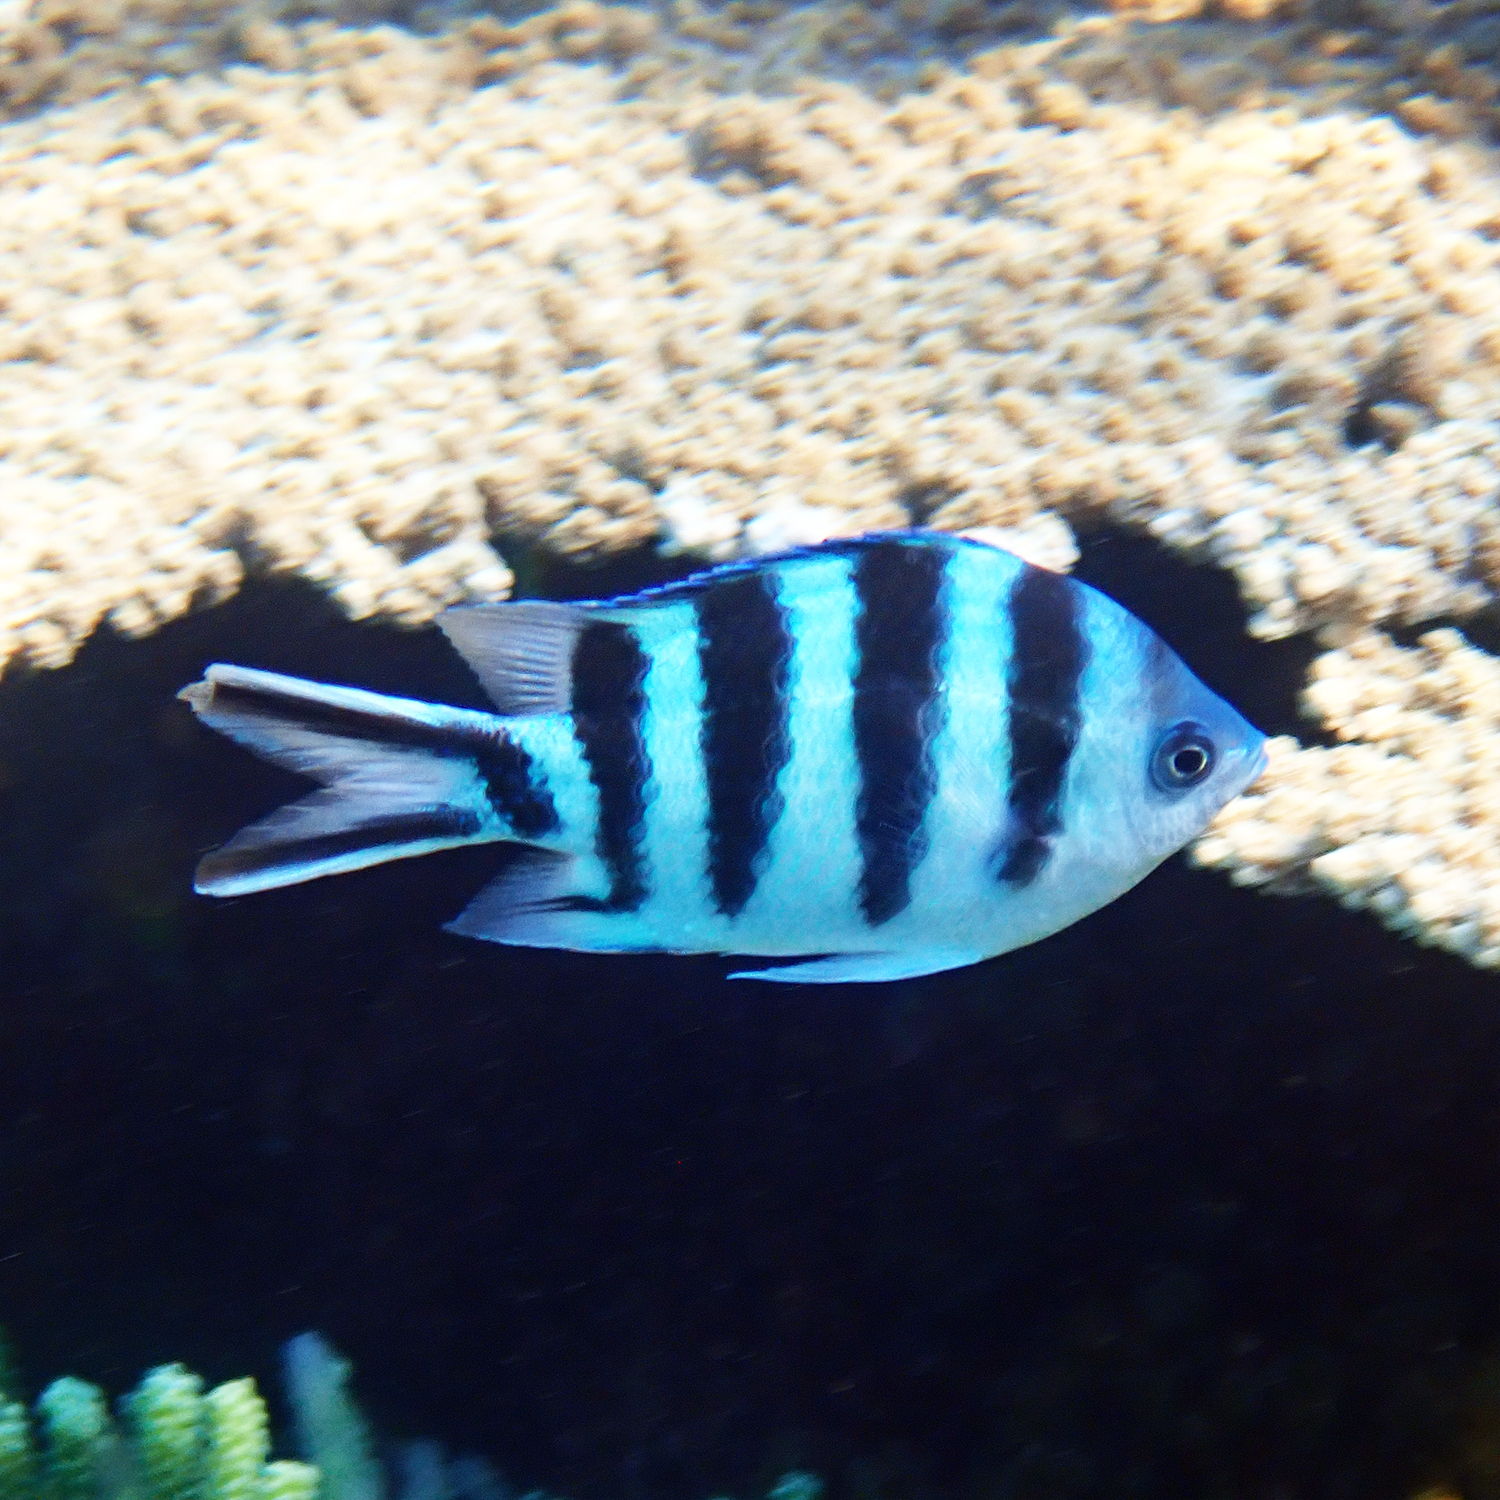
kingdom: Animalia
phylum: Chordata
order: Perciformes
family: Pomacentridae
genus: Abudefduf
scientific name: Abudefduf sexfasciatus
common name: Scissortail sergeant
